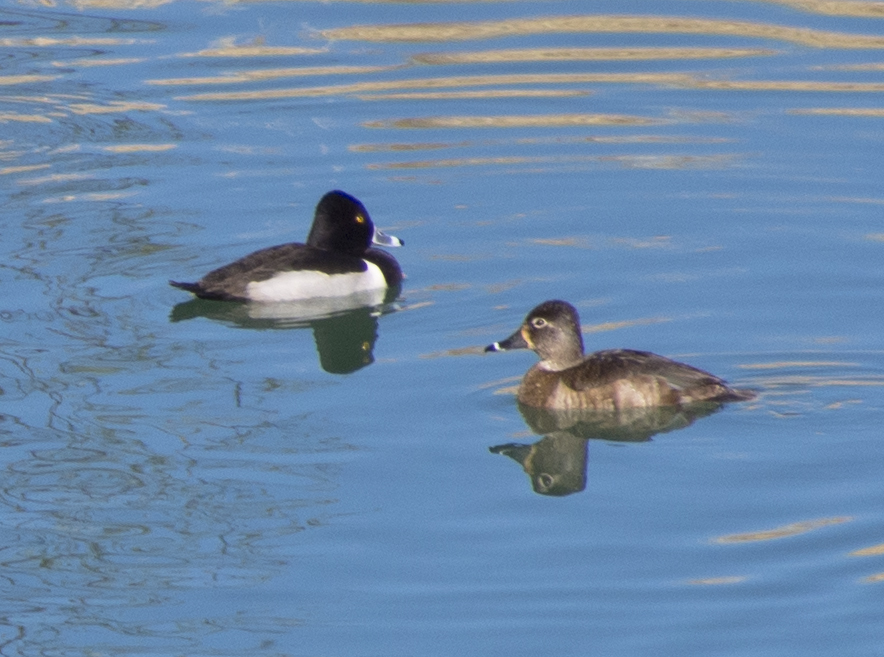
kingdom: Animalia
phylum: Chordata
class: Aves
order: Anseriformes
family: Anatidae
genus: Aythya
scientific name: Aythya collaris
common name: Ring-necked duck
